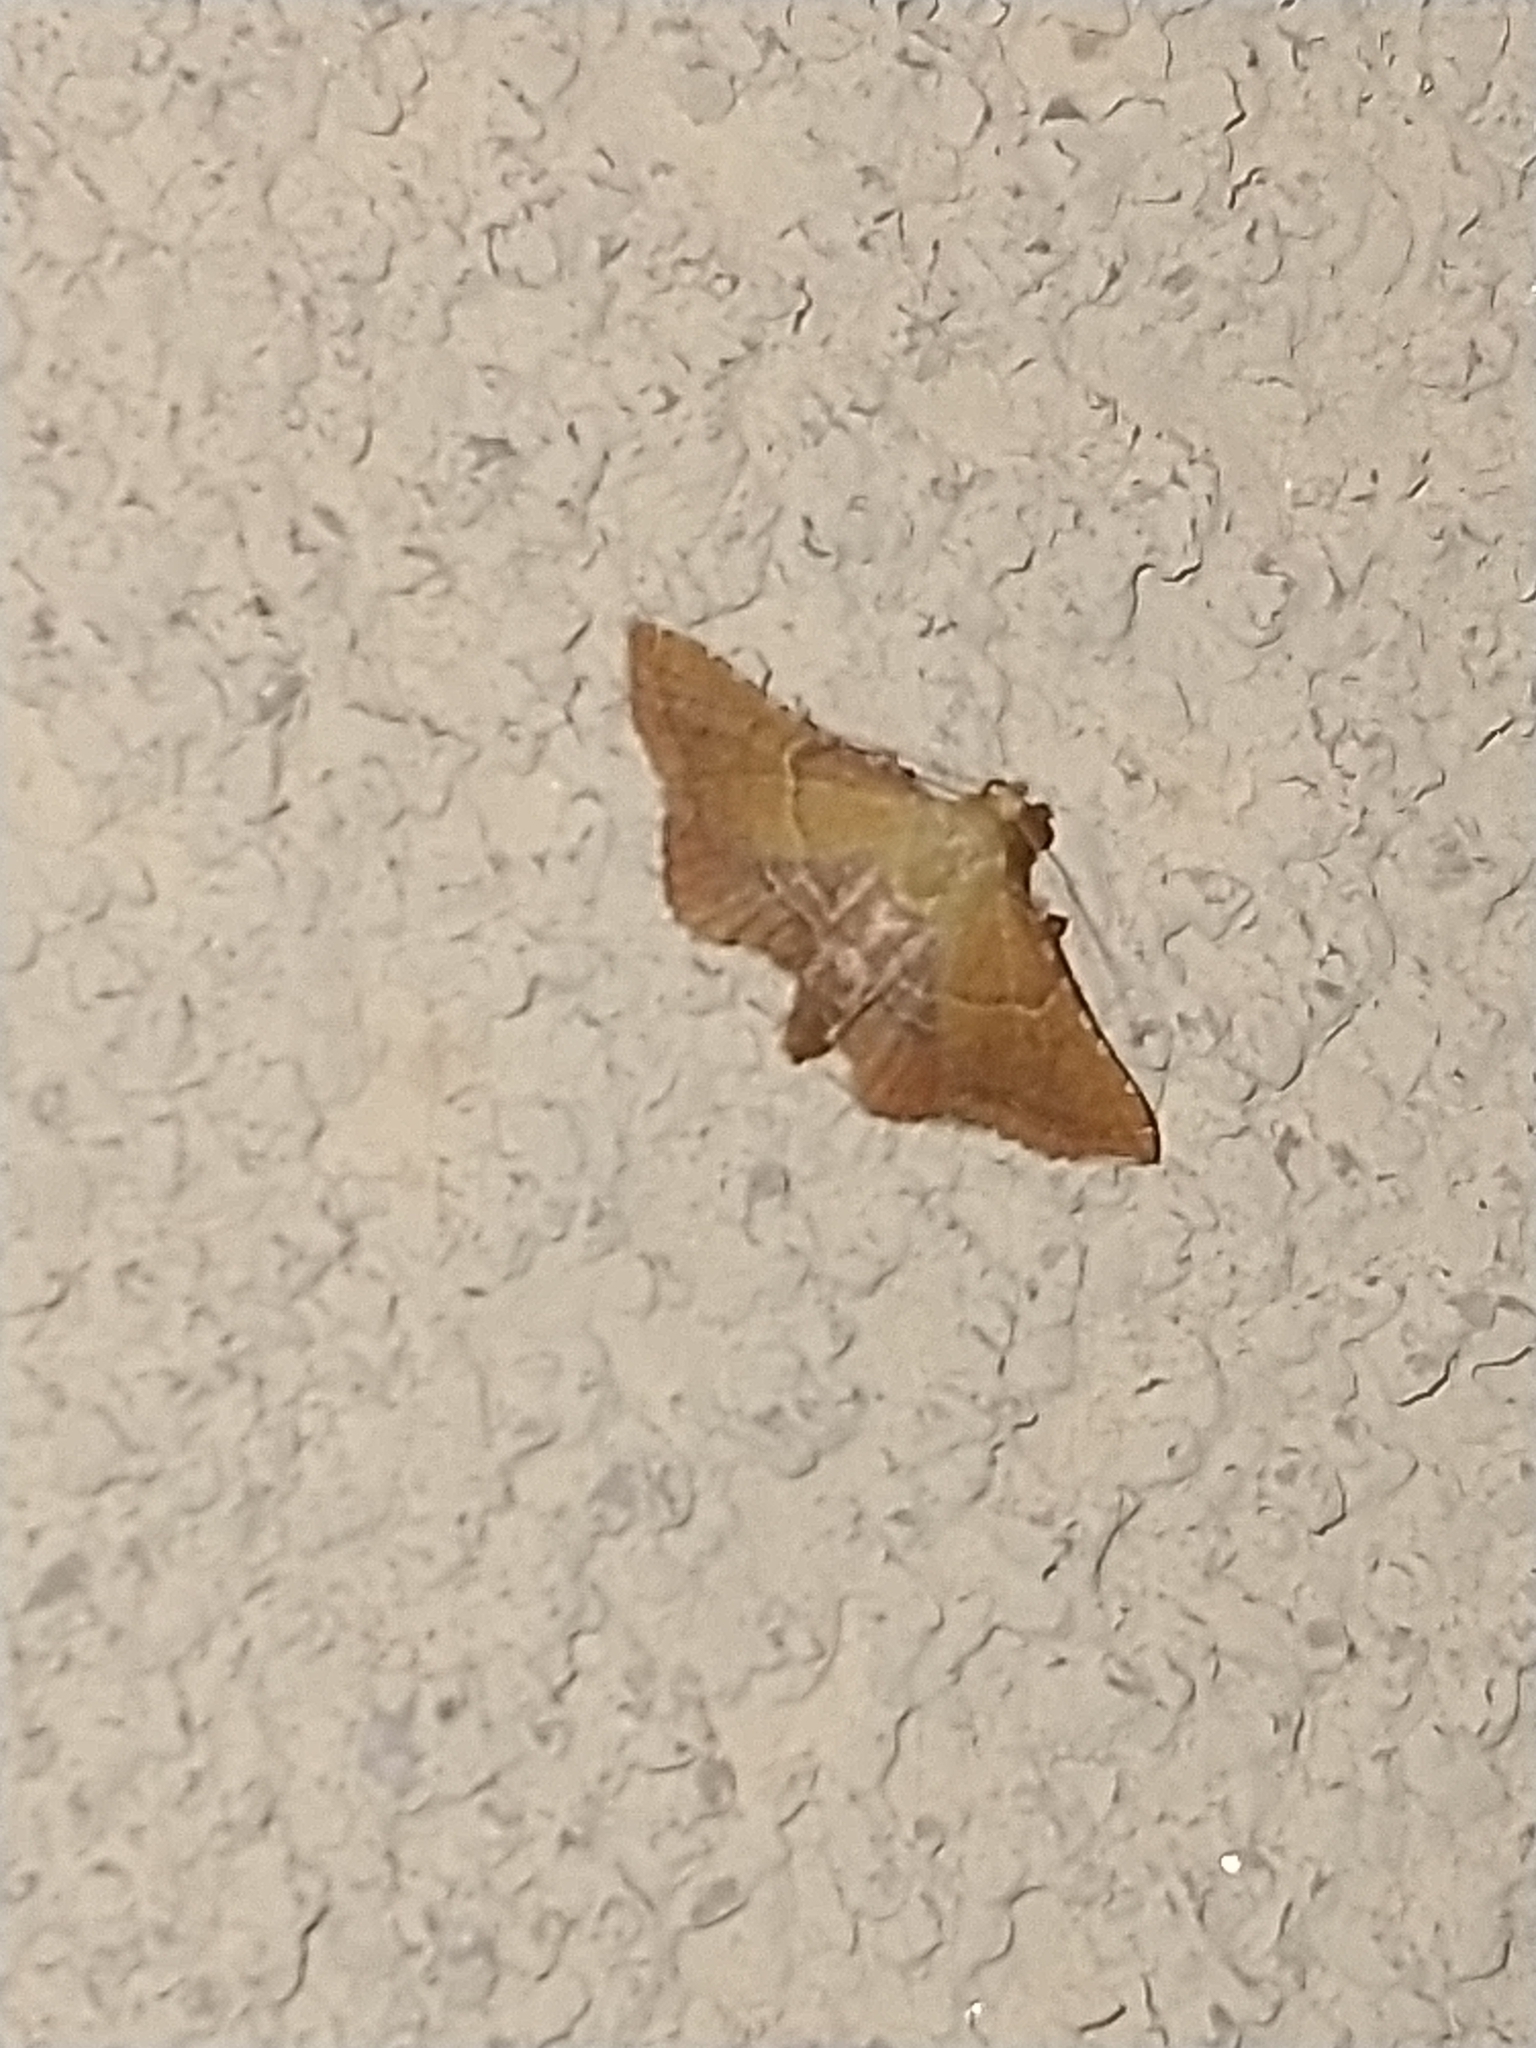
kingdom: Animalia
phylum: Arthropoda
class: Insecta
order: Lepidoptera
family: Pyralidae
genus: Endotricha
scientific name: Endotricha flammealis
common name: Rosy tabby
